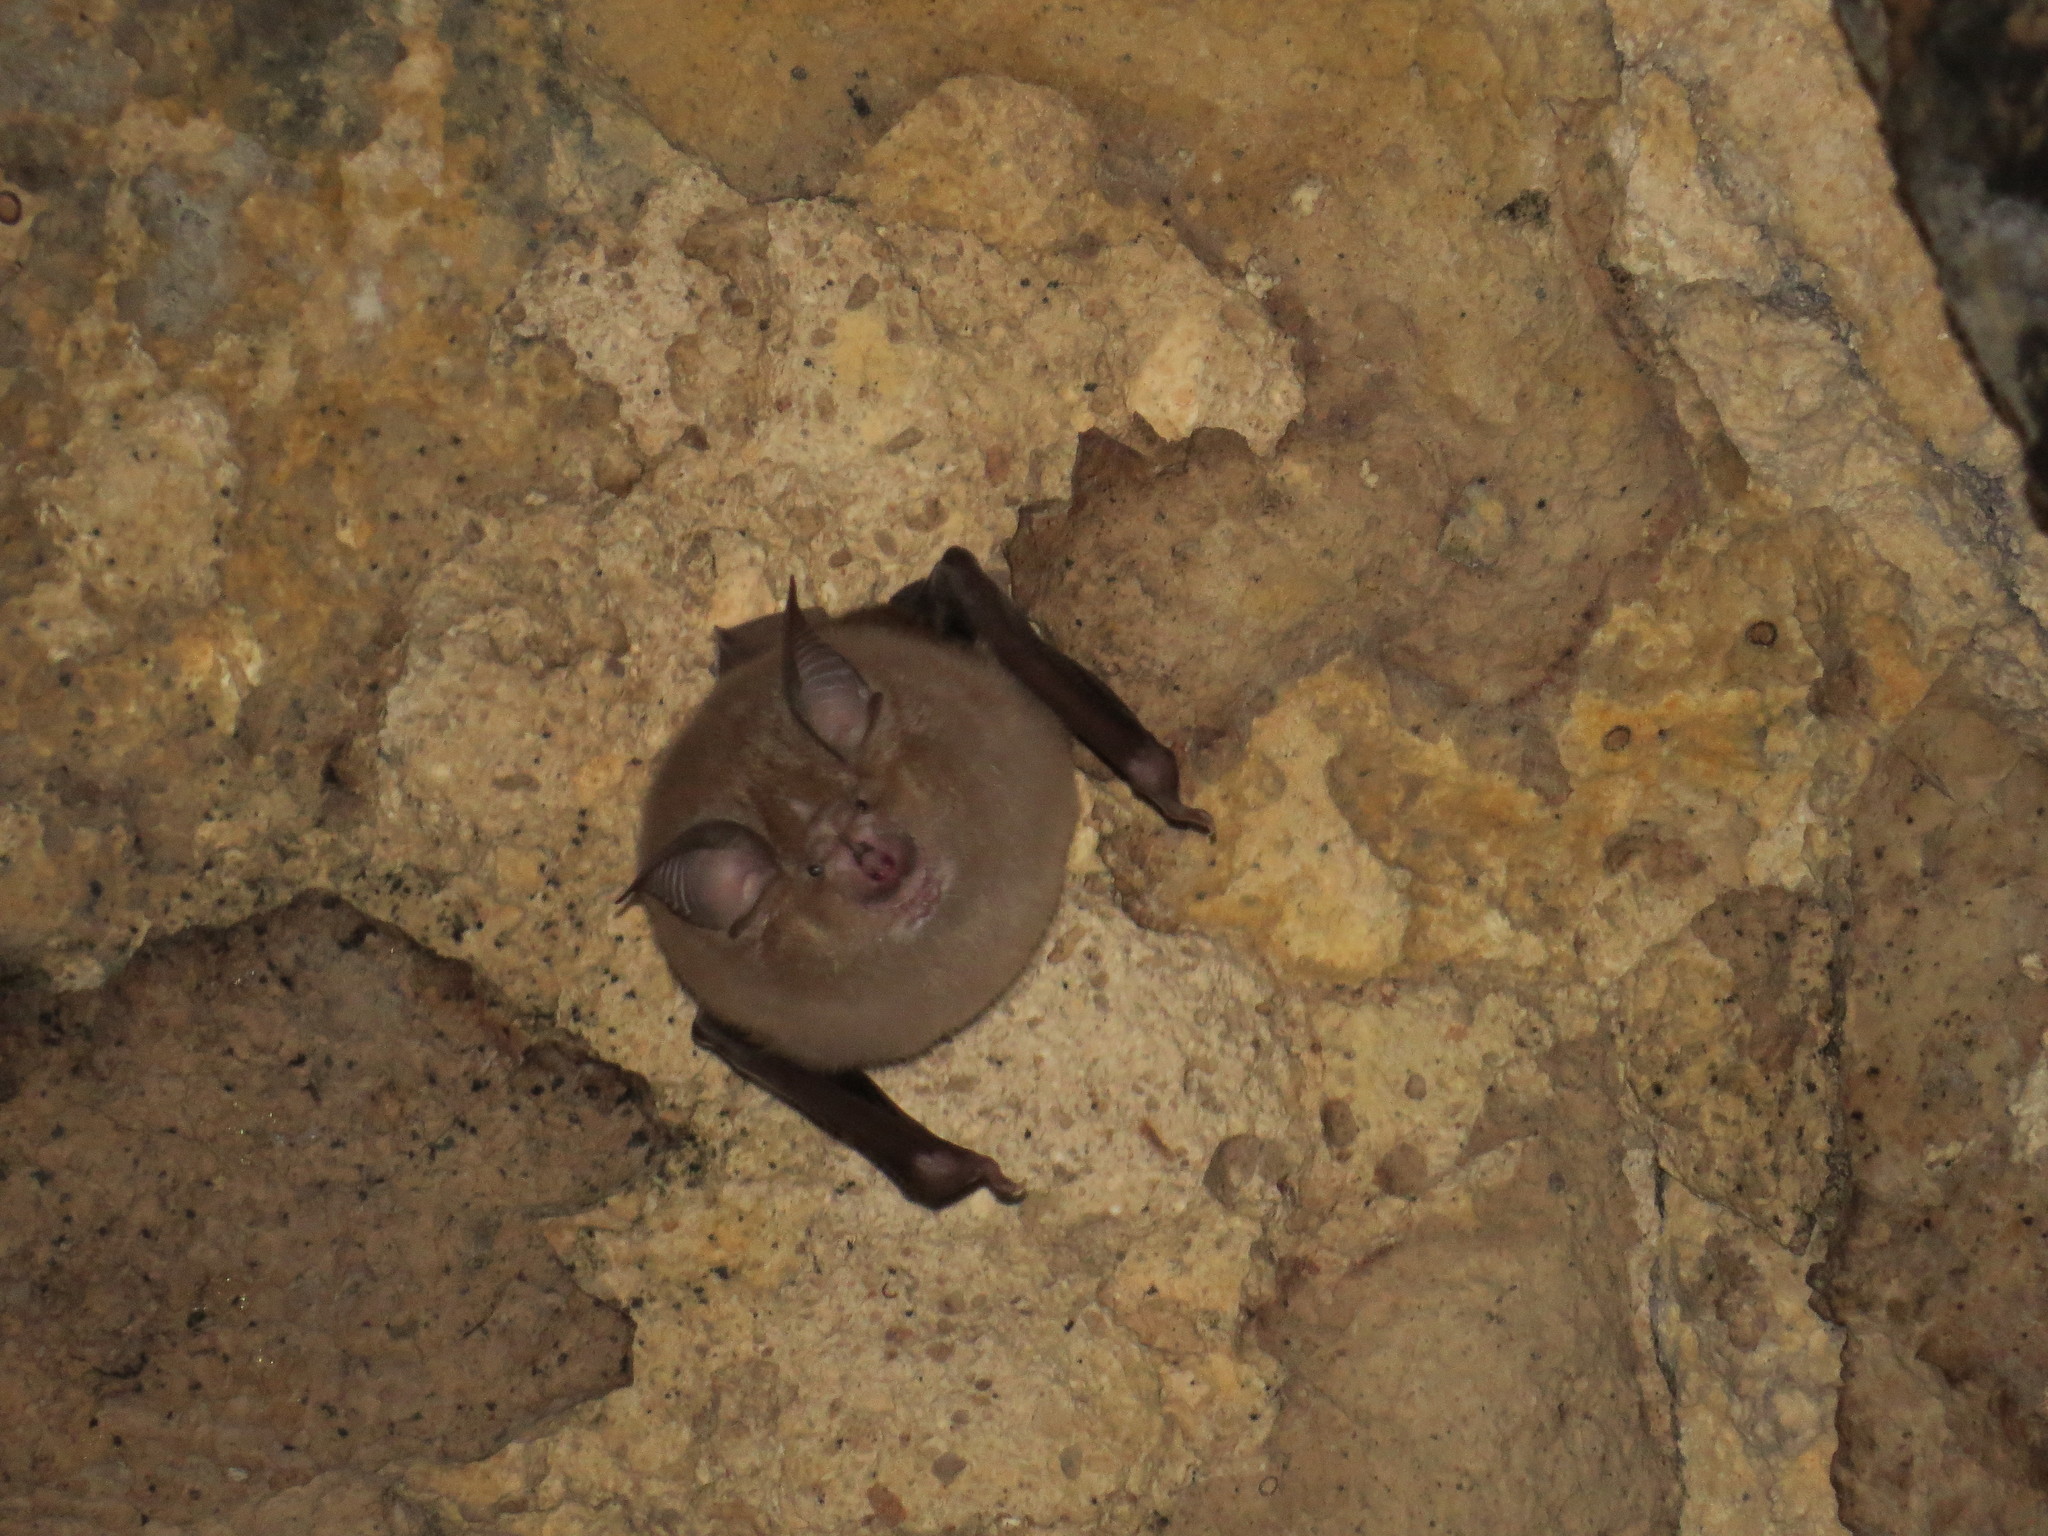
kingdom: Animalia
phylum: Chordata
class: Mammalia
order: Chiroptera
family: Rhinolophidae
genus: Rhinolophus
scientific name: Rhinolophus ferrumequinum
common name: Greater horseshoe bat
